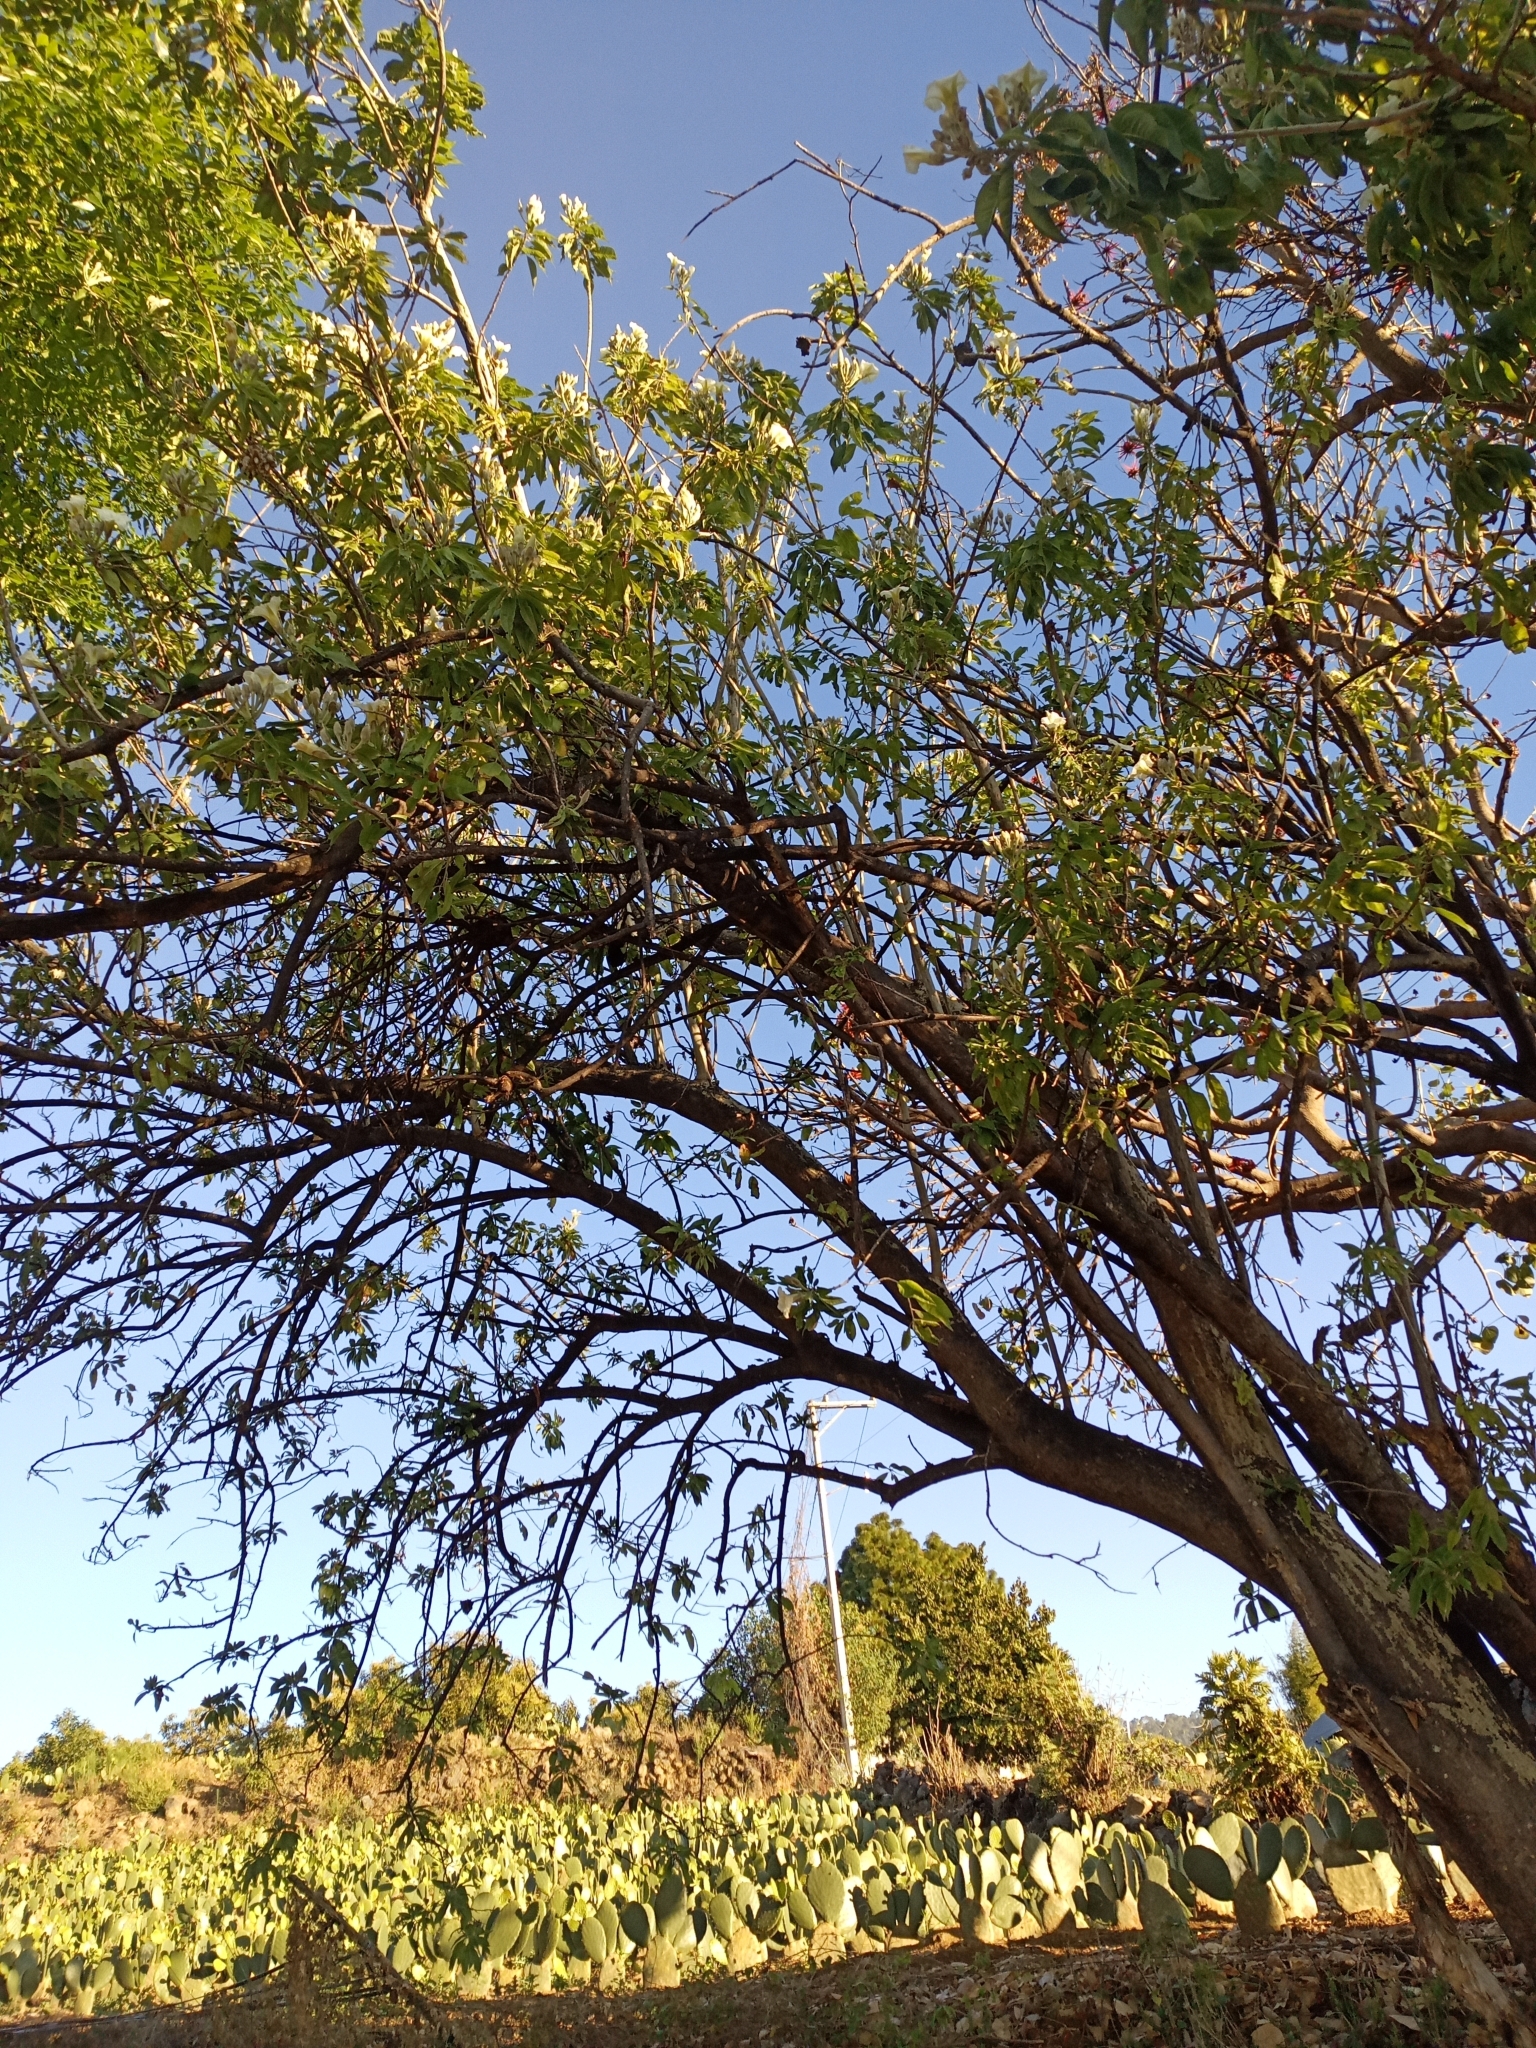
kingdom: Plantae
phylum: Tracheophyta
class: Magnoliopsida
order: Solanales
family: Convolvulaceae
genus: Ipomoea
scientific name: Ipomoea murucoides
